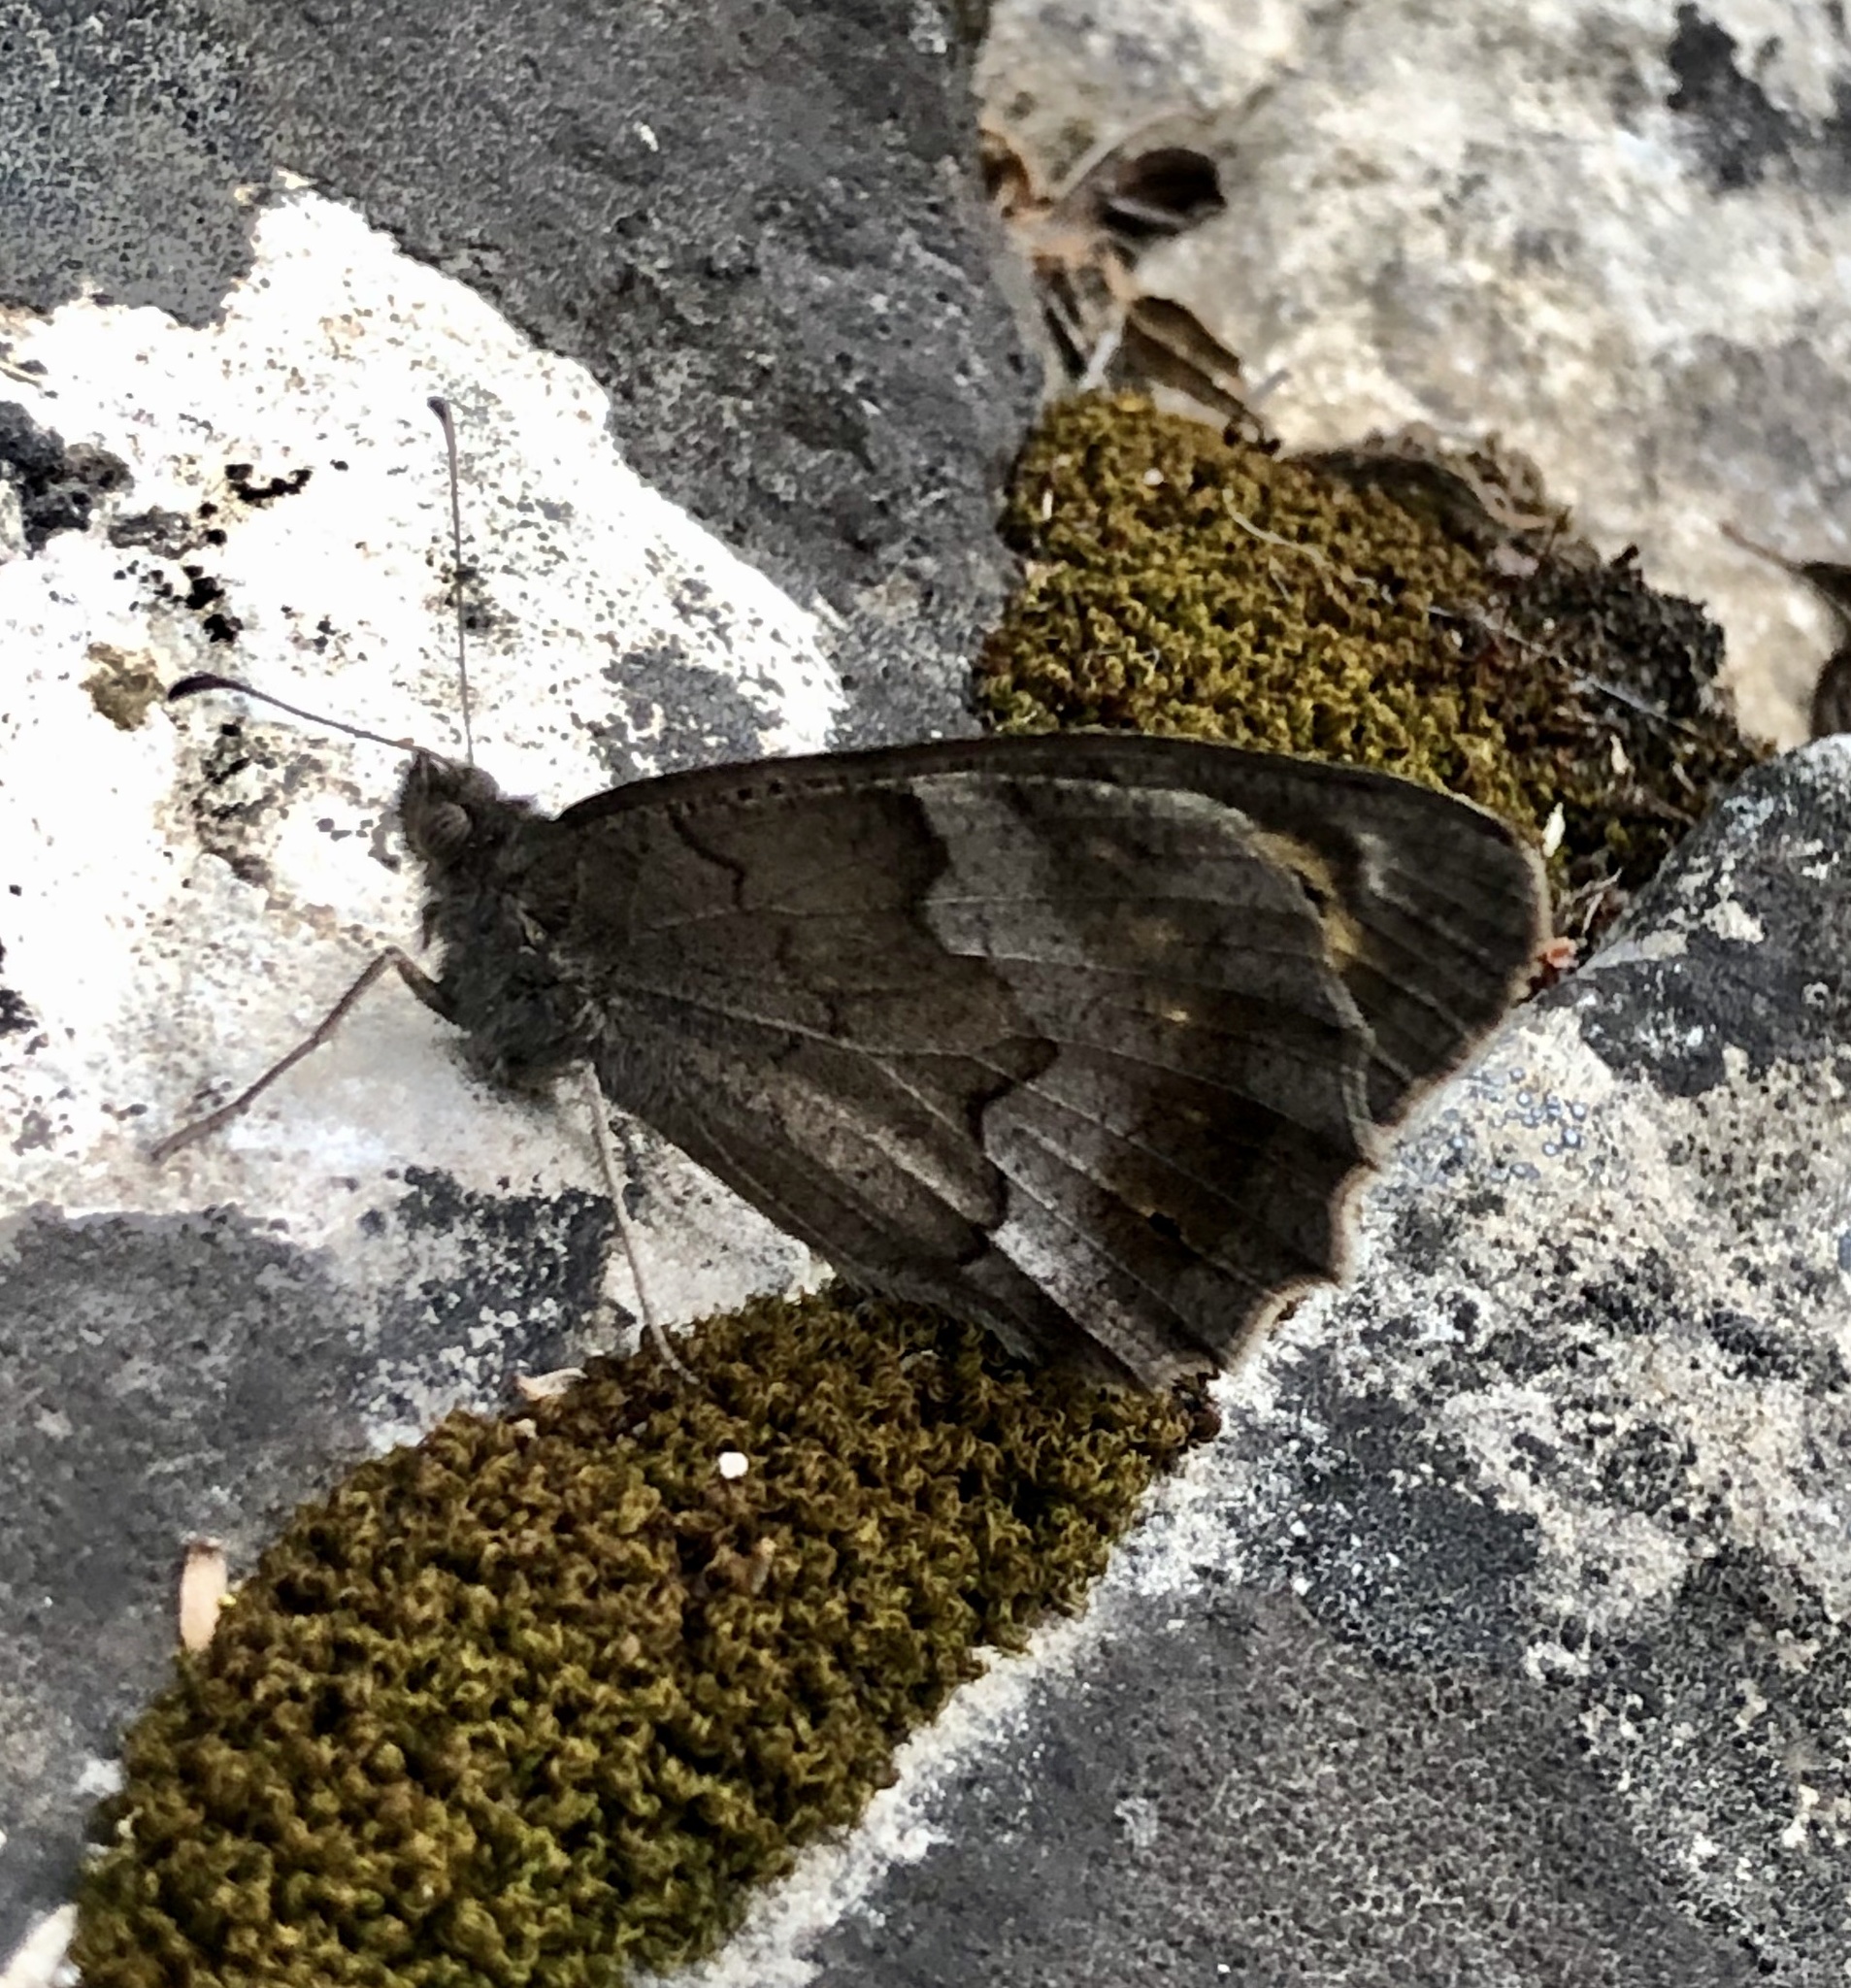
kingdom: Animalia
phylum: Arthropoda
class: Insecta
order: Lepidoptera
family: Nymphalidae
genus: Hipparchia
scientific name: Hipparchia statilinus
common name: Tree grayling
